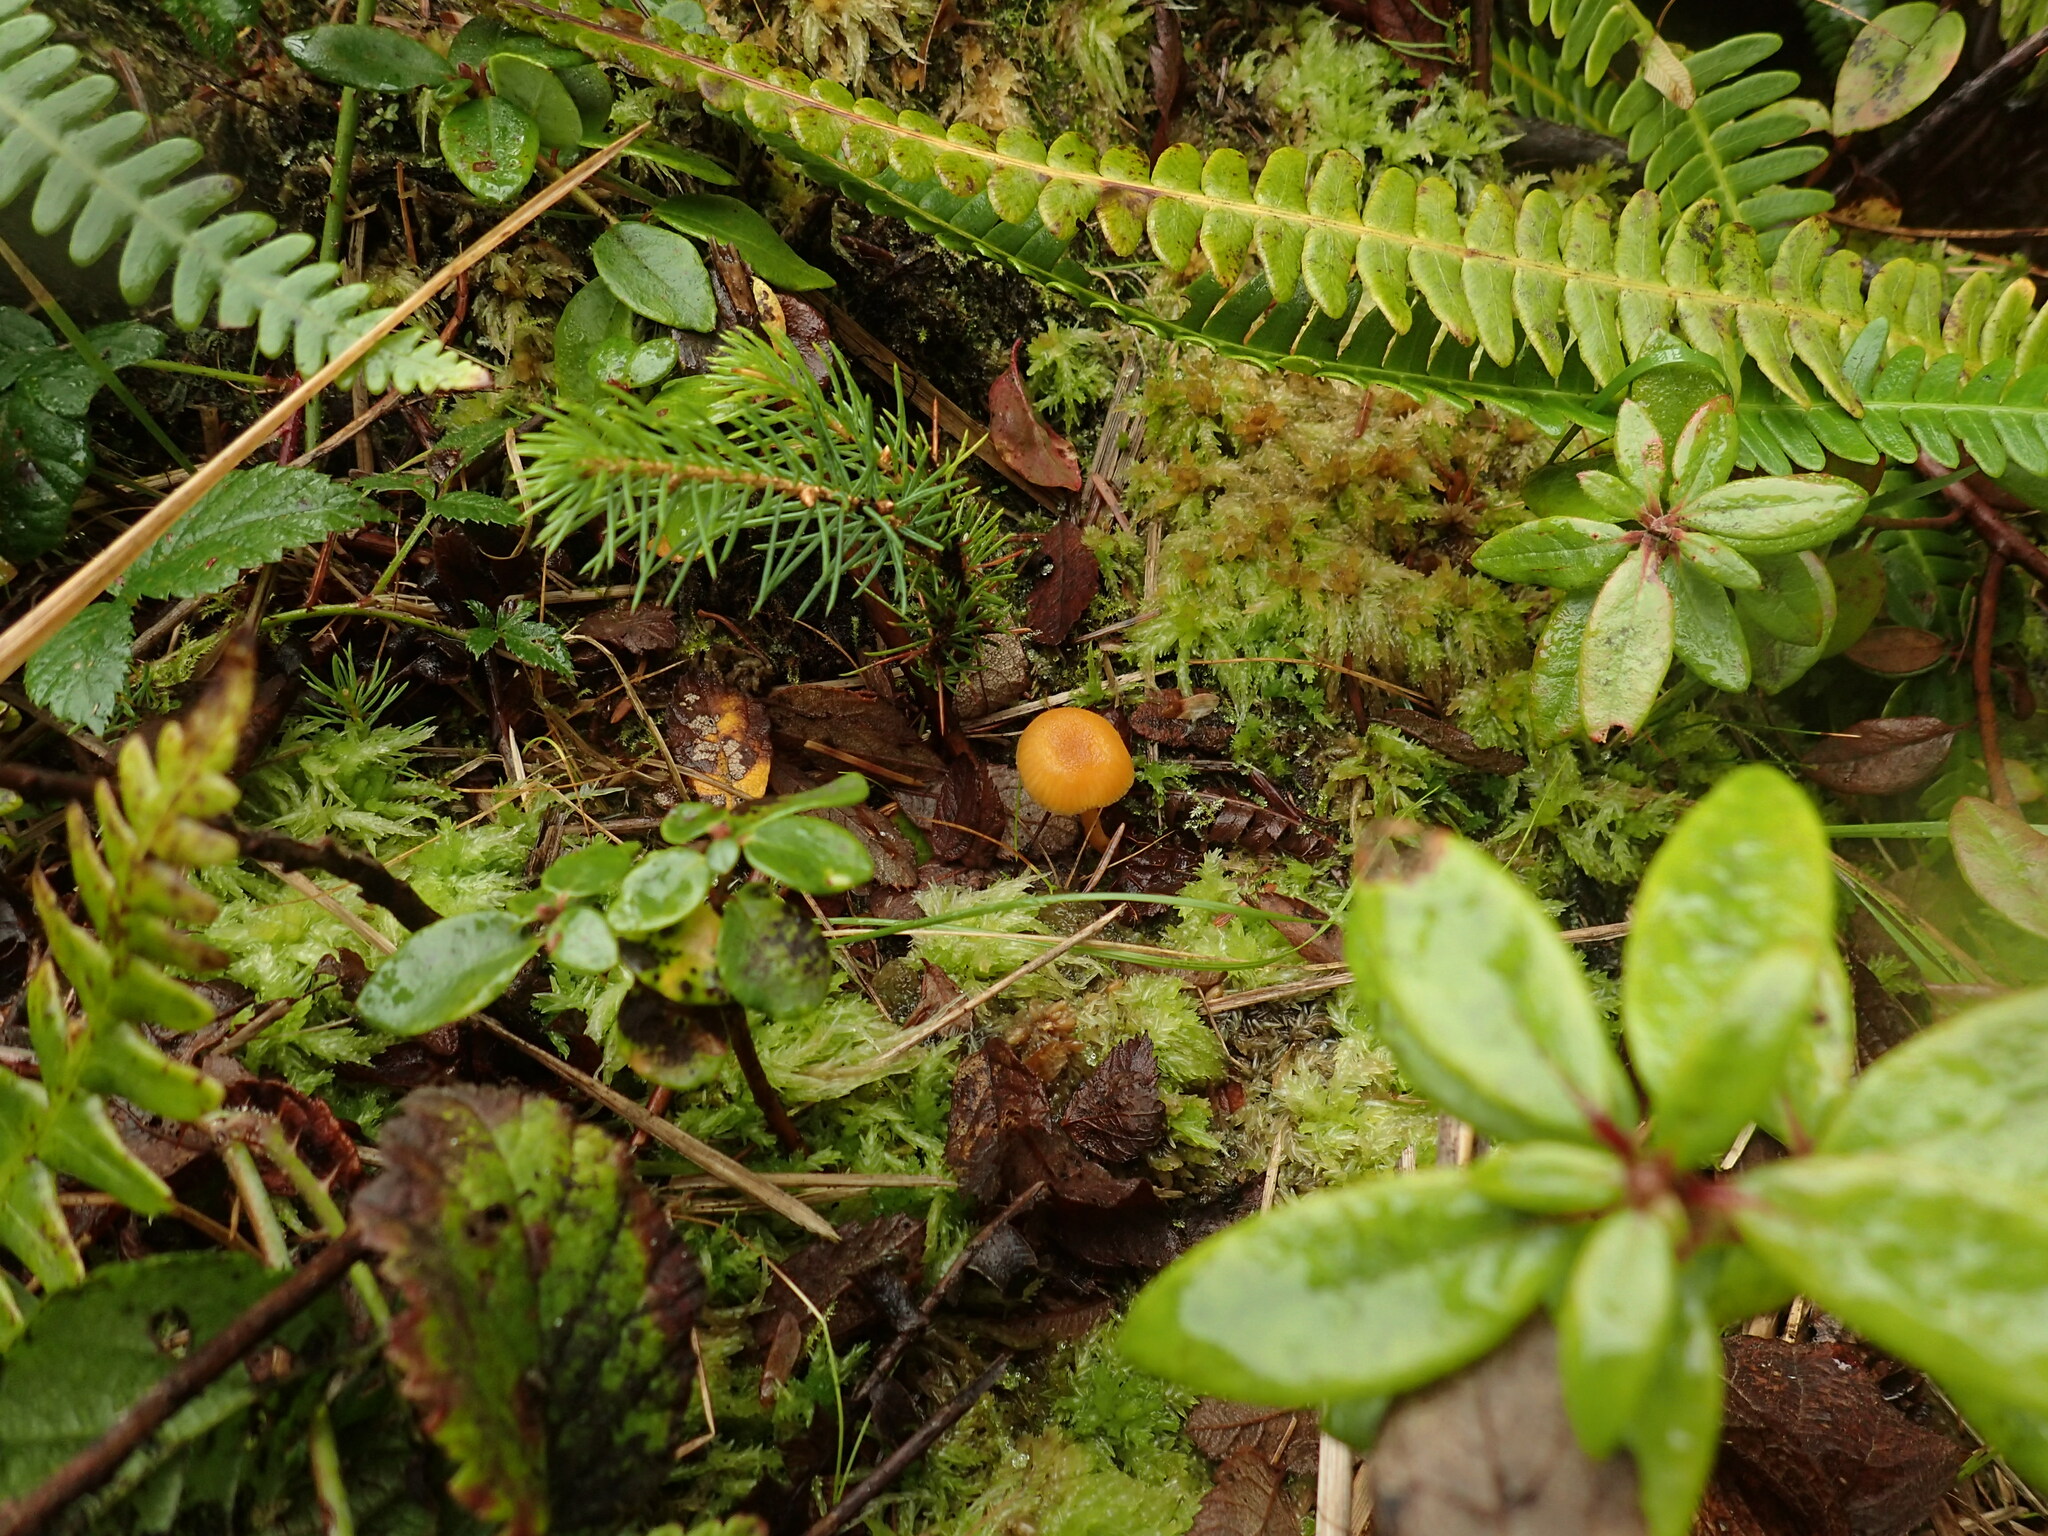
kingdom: Fungi
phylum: Basidiomycota
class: Agaricomycetes
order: Agaricales
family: Hygrophoraceae
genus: Hygrocybe
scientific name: Hygrocybe constans
